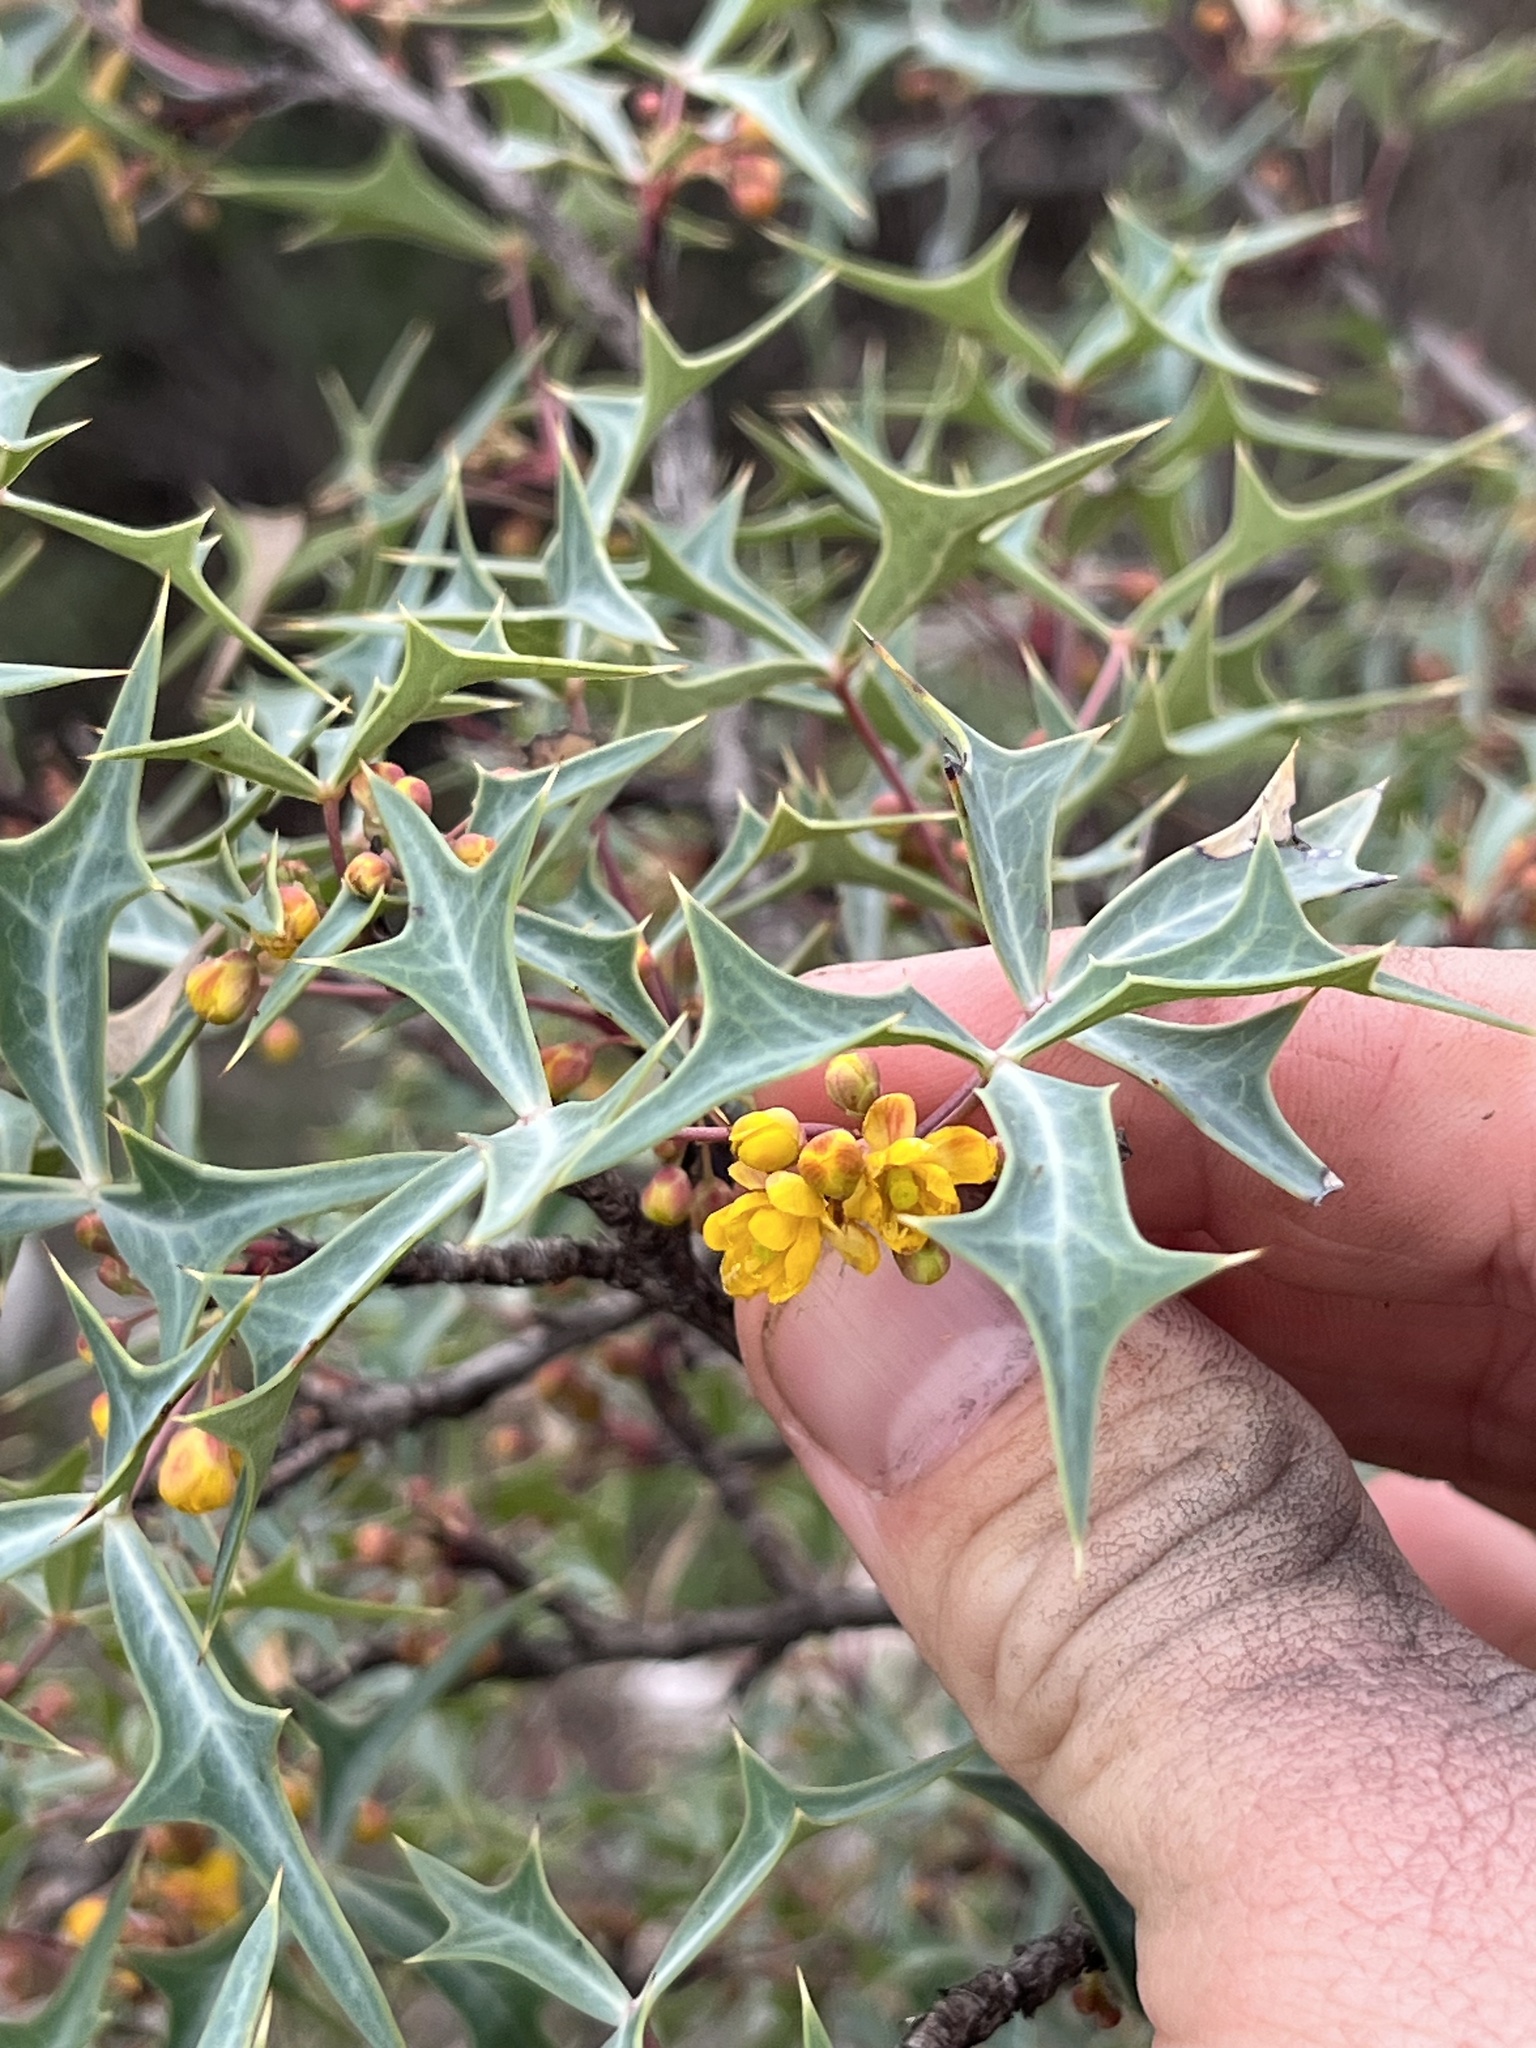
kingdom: Plantae
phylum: Tracheophyta
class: Magnoliopsida
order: Ranunculales
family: Berberidaceae
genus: Alloberberis
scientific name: Alloberberis trifoliolata
